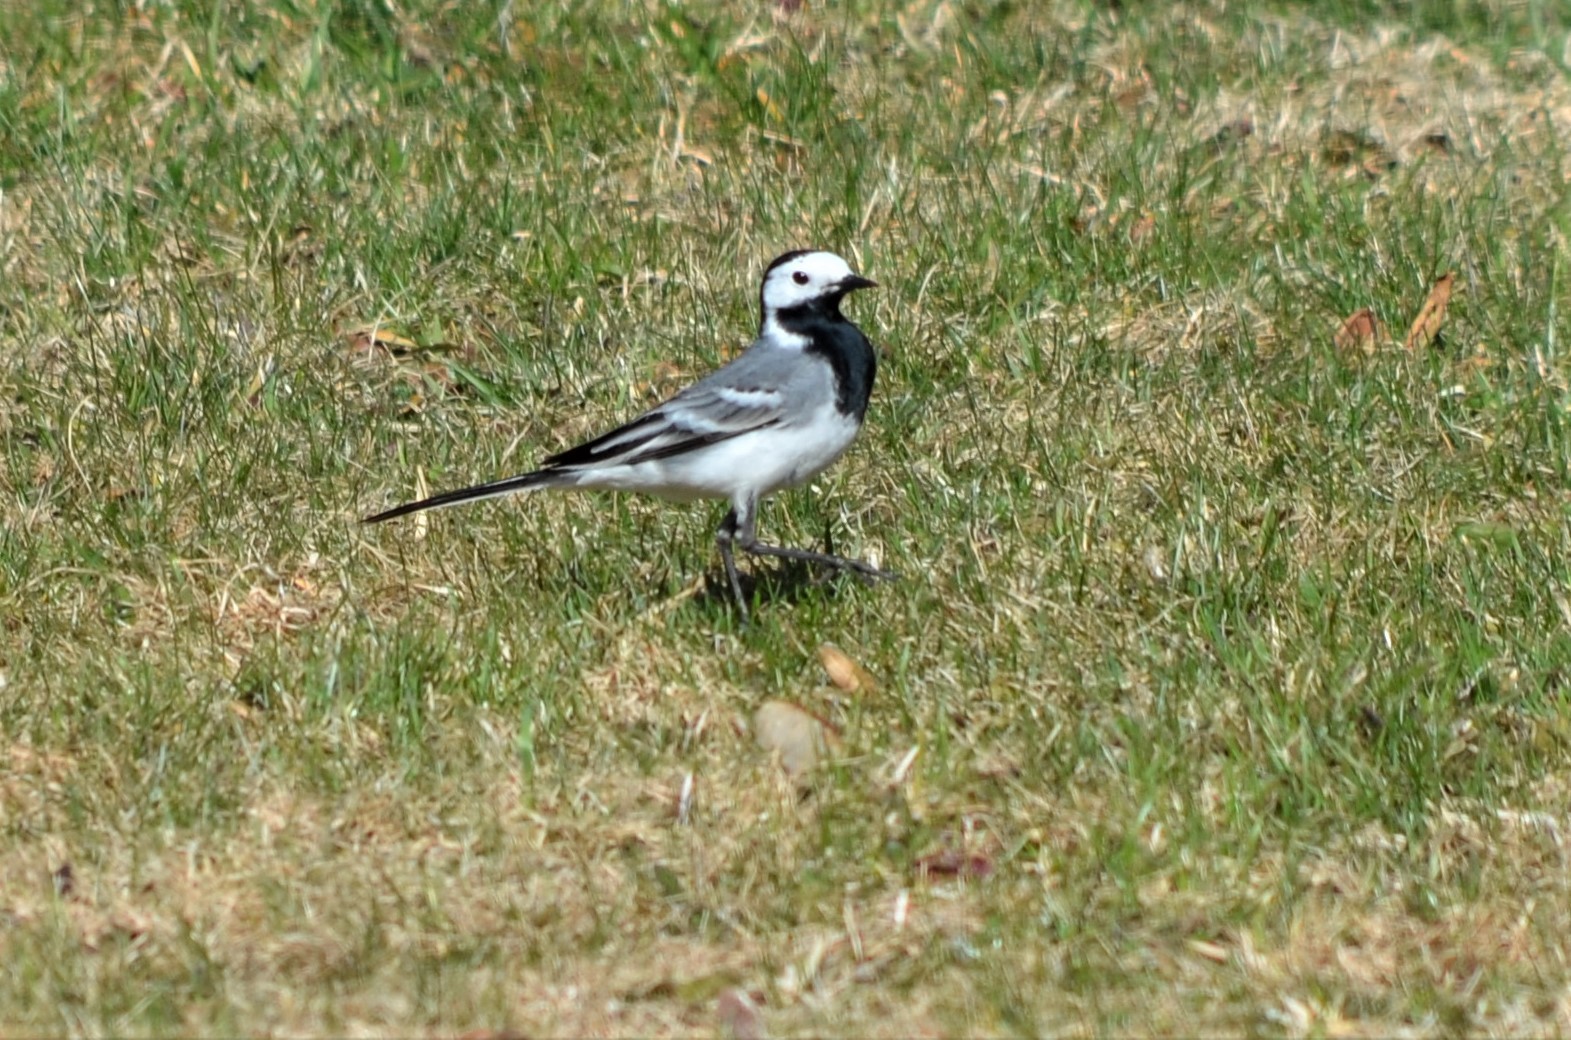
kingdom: Animalia
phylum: Chordata
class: Aves
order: Passeriformes
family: Motacillidae
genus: Motacilla
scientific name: Motacilla alba
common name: White wagtail
